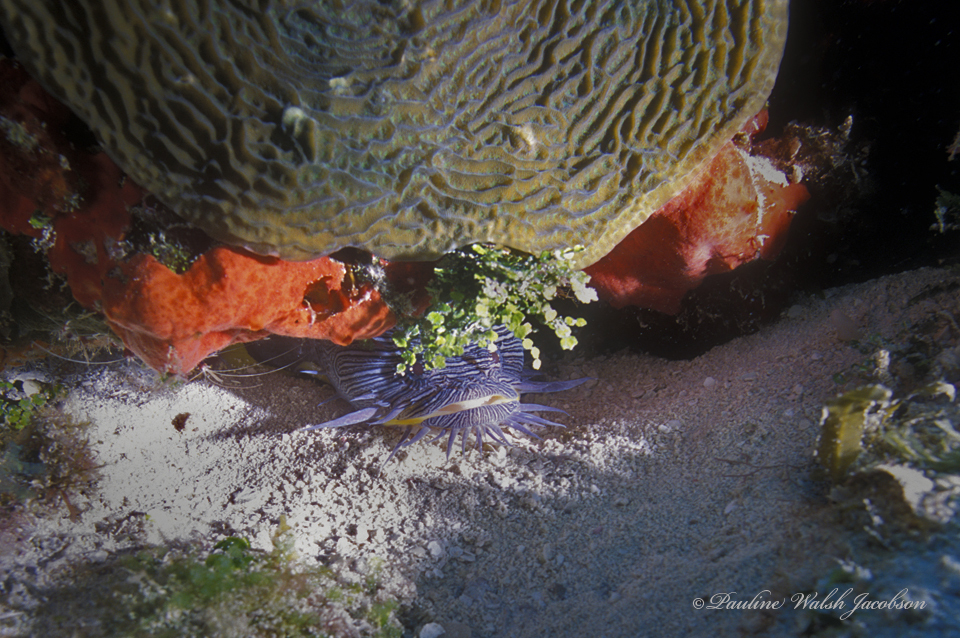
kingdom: Animalia
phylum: Chordata
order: Batrachoidiformes
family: Batrachoididae
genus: Sanopus
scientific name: Sanopus splendidus
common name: Splendid toadfish
